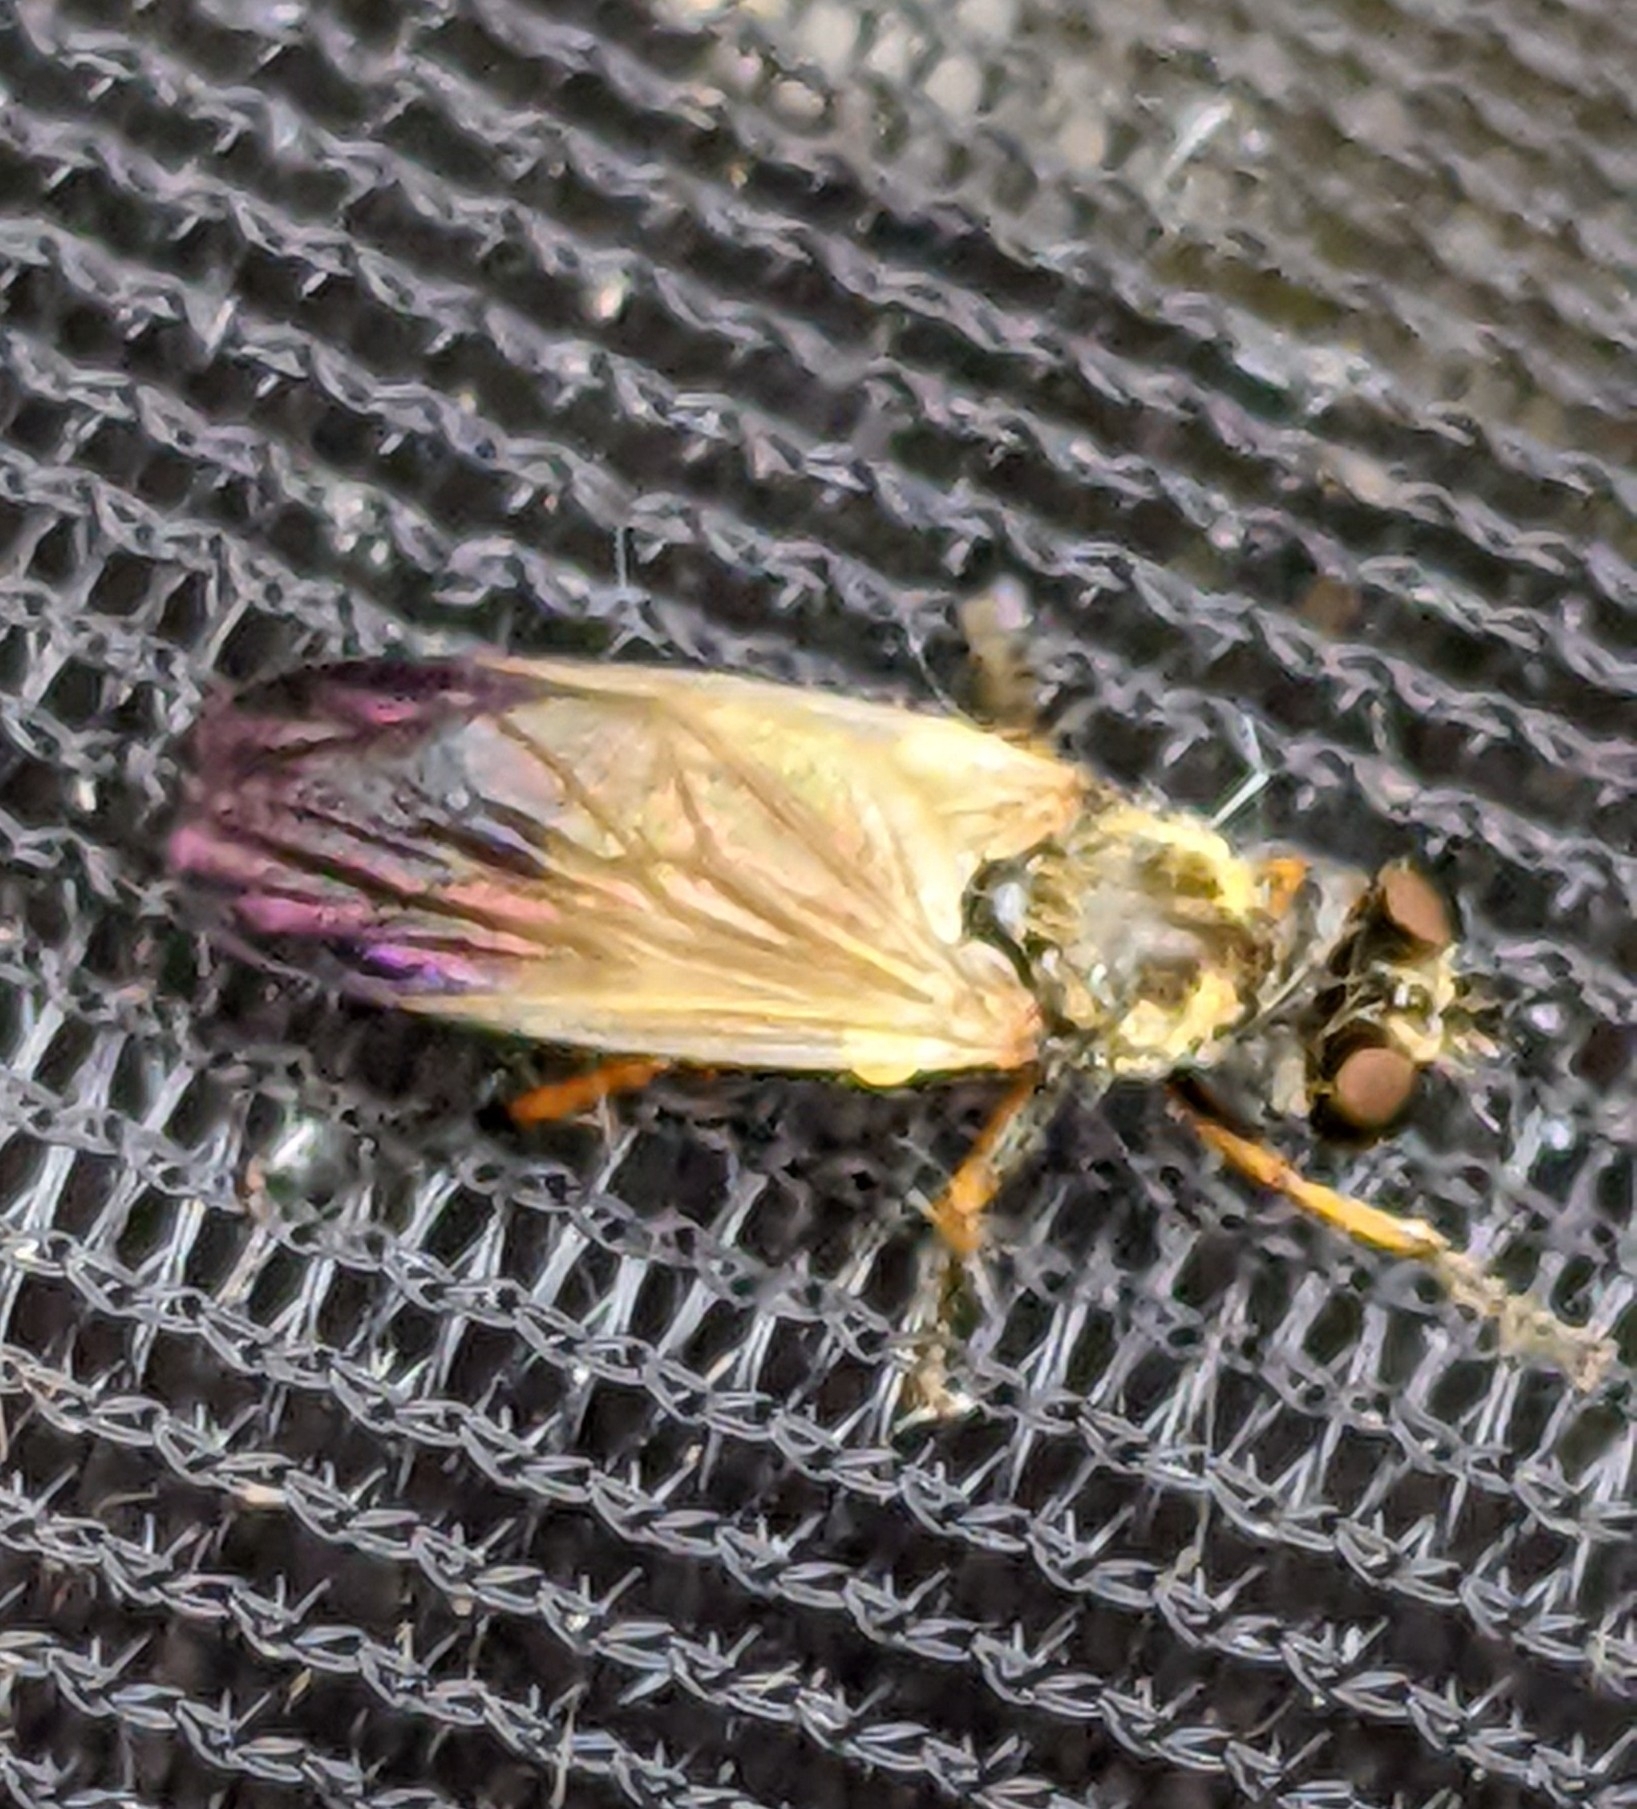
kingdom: Animalia
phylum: Arthropoda
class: Insecta
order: Diptera
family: Asilidae
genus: Eudioctria
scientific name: Eudioctria sackeni
